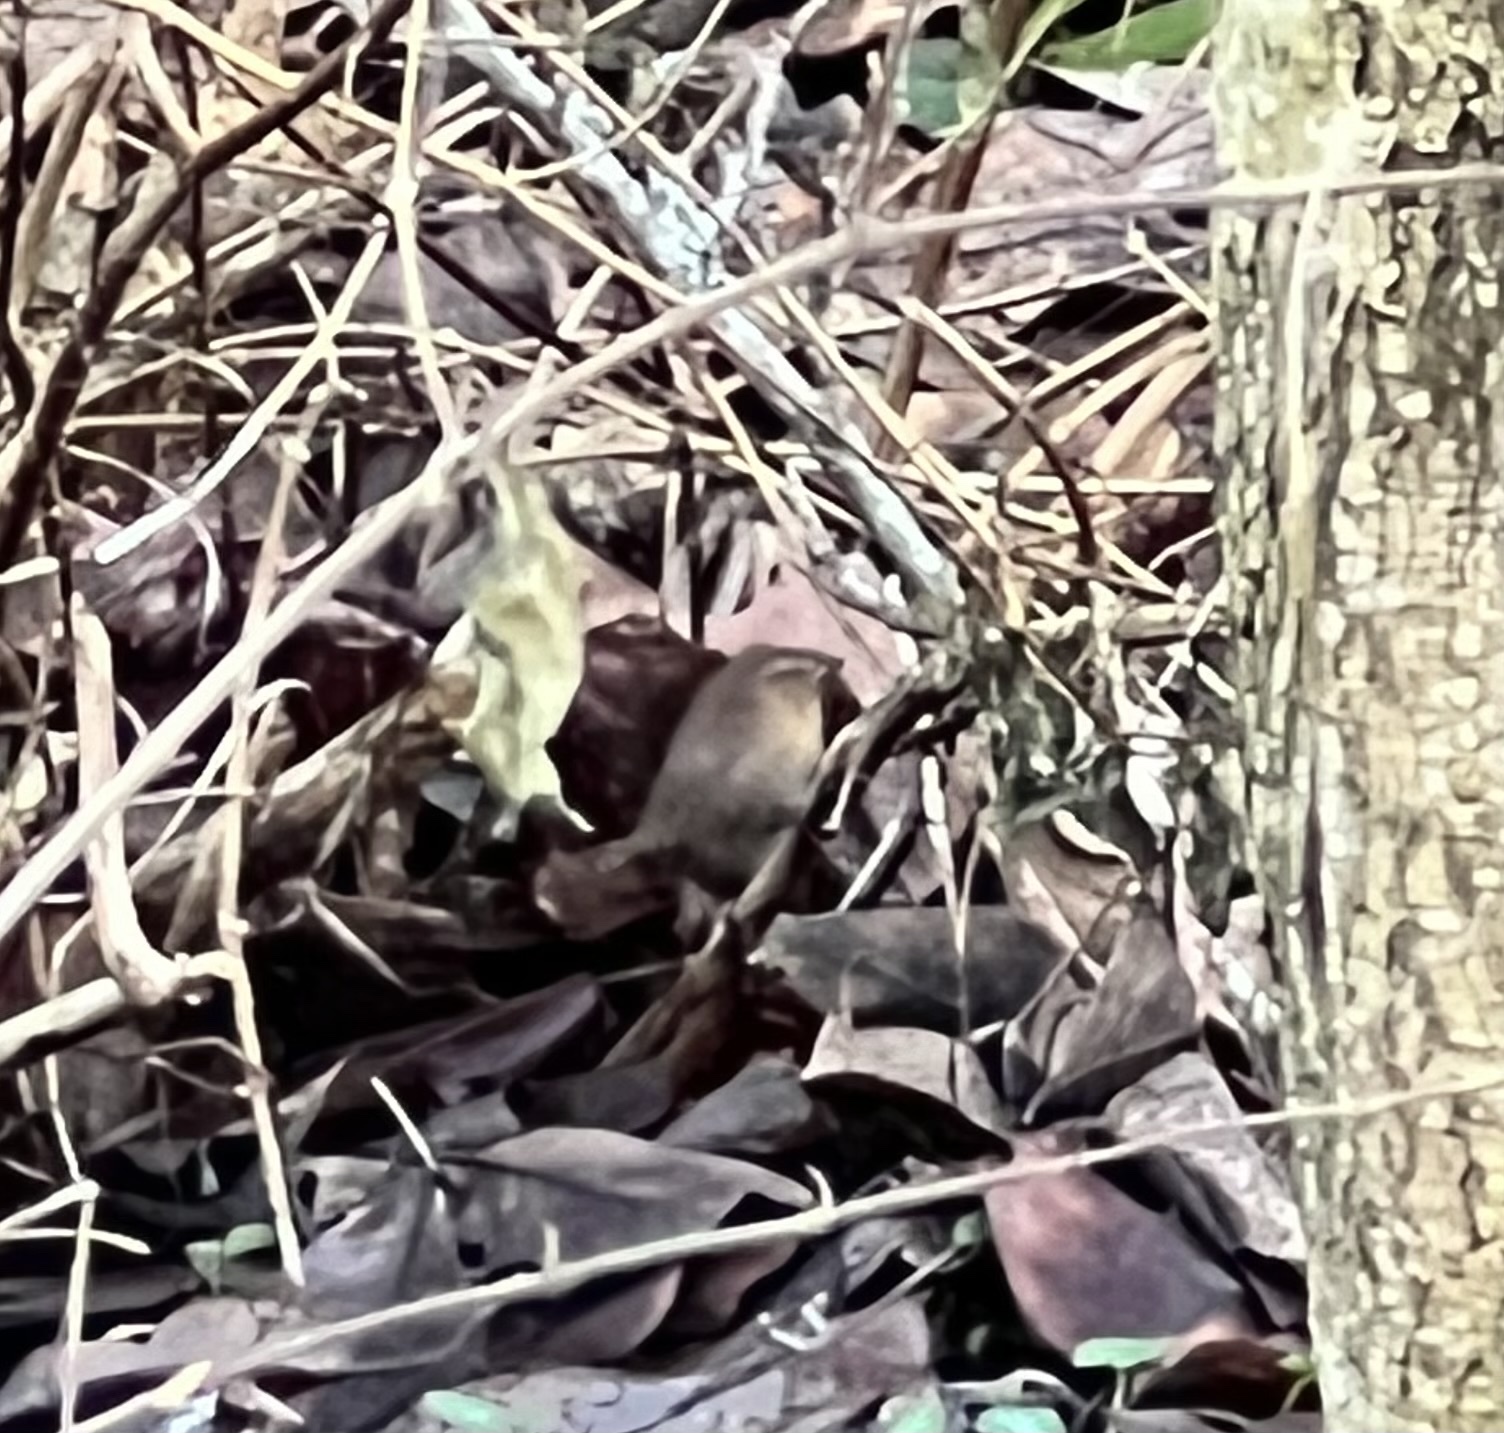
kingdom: Animalia
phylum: Chordata
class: Aves
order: Passeriformes
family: Troglodytidae
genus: Troglodytes
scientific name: Troglodytes pacificus
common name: Pacific wren
